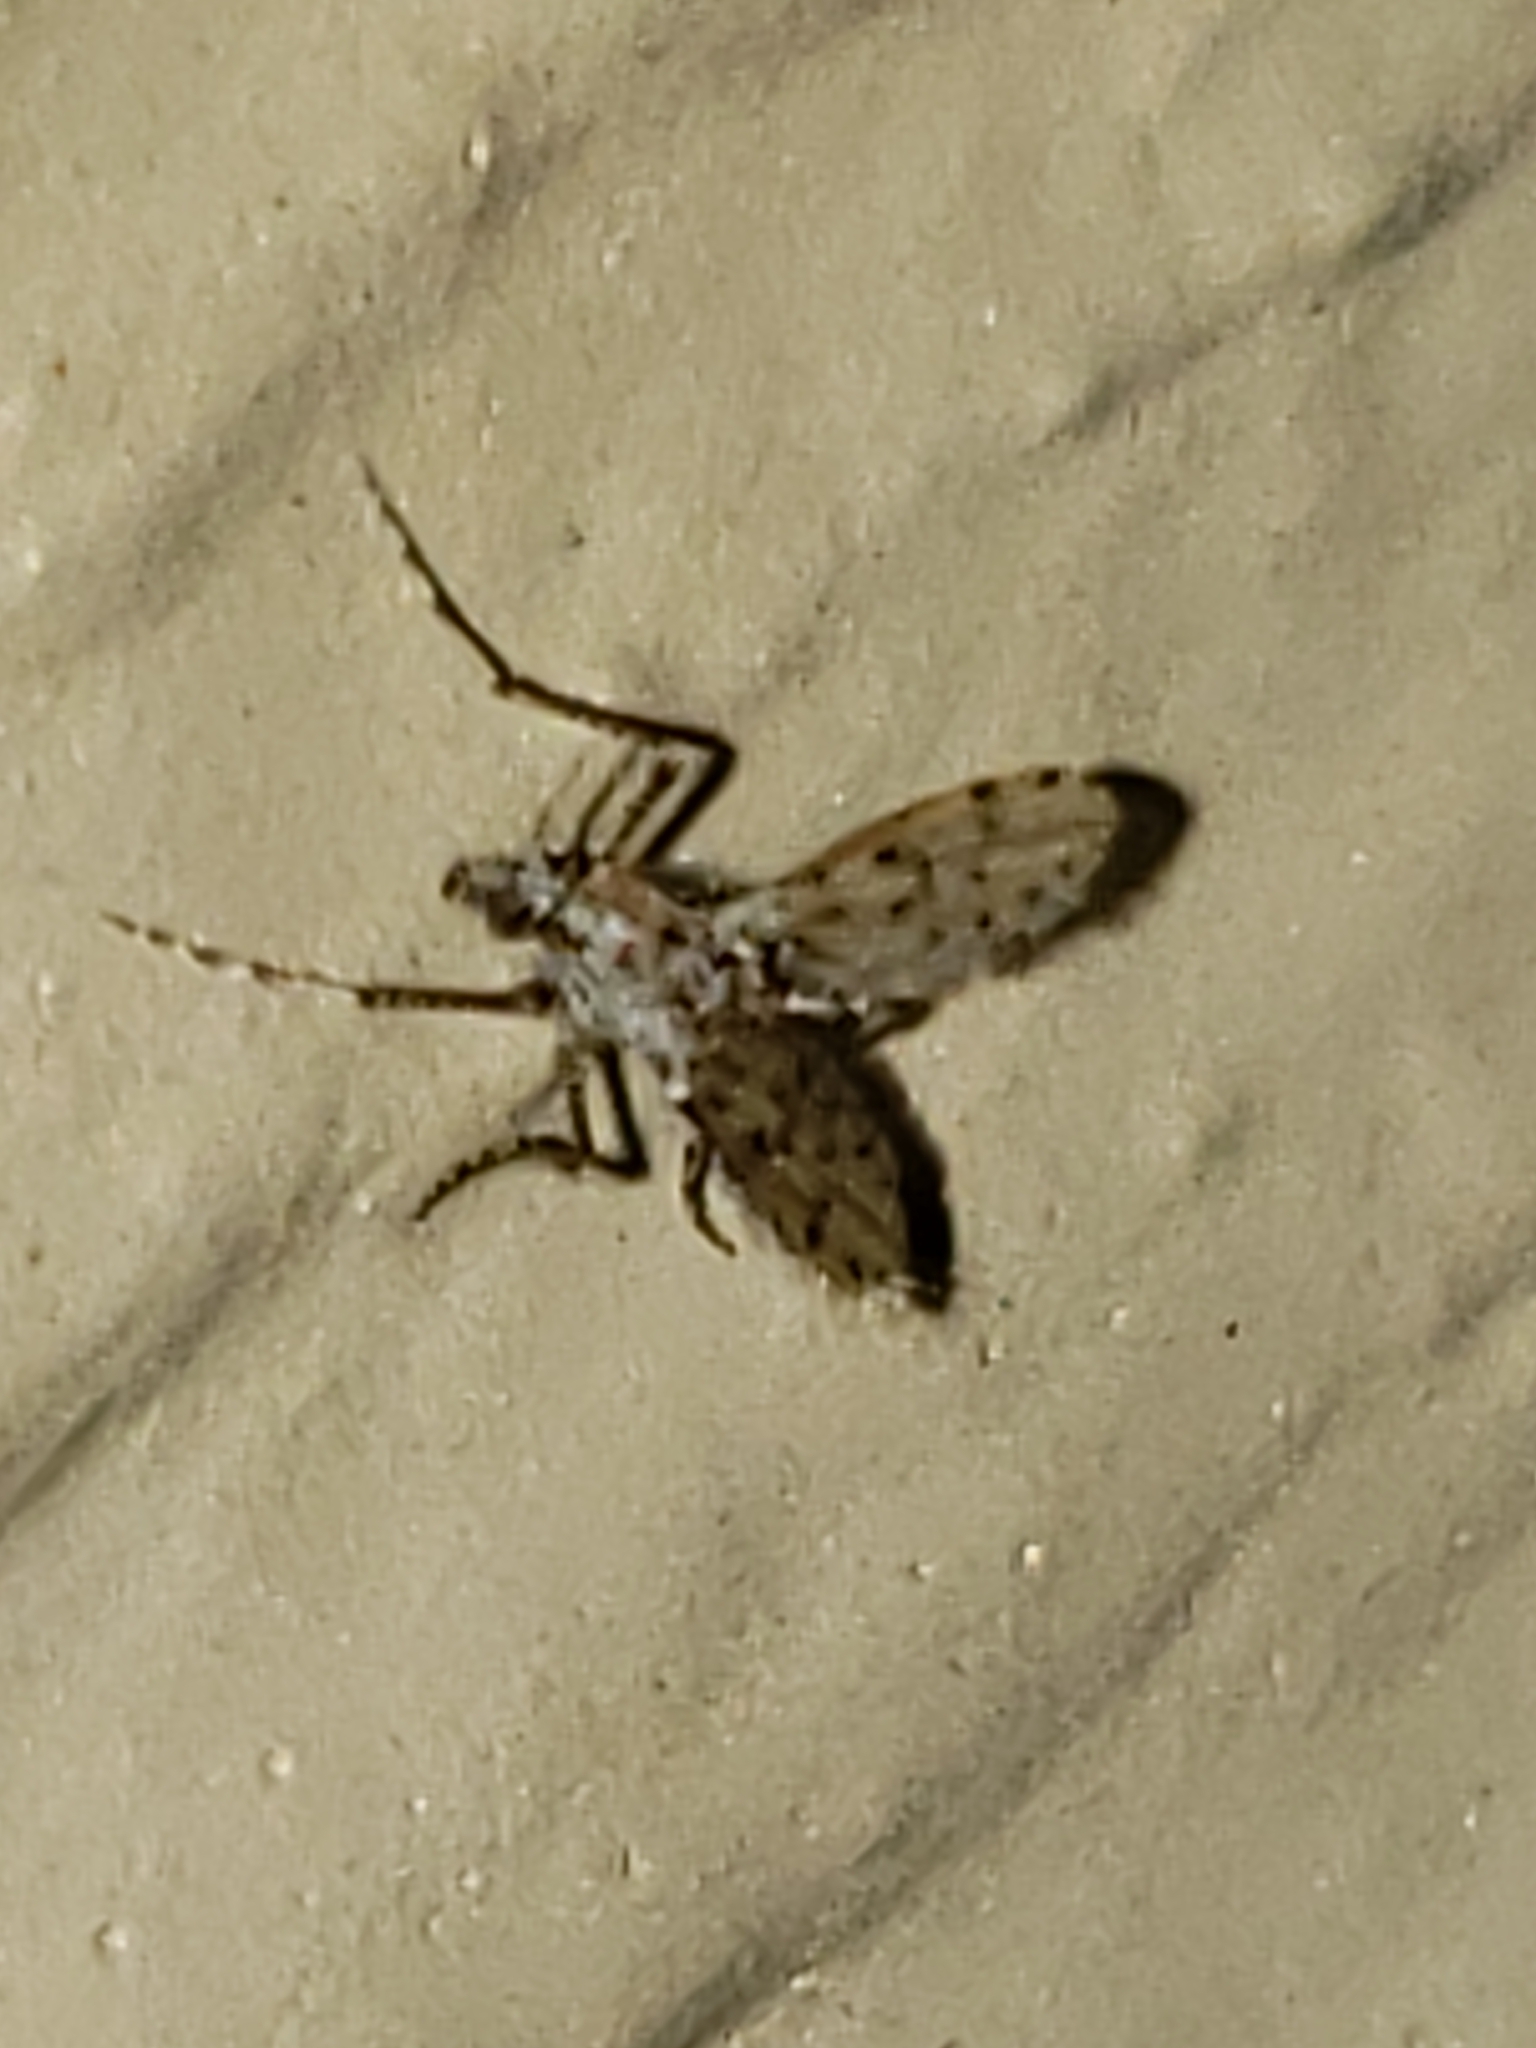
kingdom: Animalia
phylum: Arthropoda
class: Insecta
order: Diptera
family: Chaoboridae
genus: Chaoborus
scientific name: Chaoborus punctipennis
